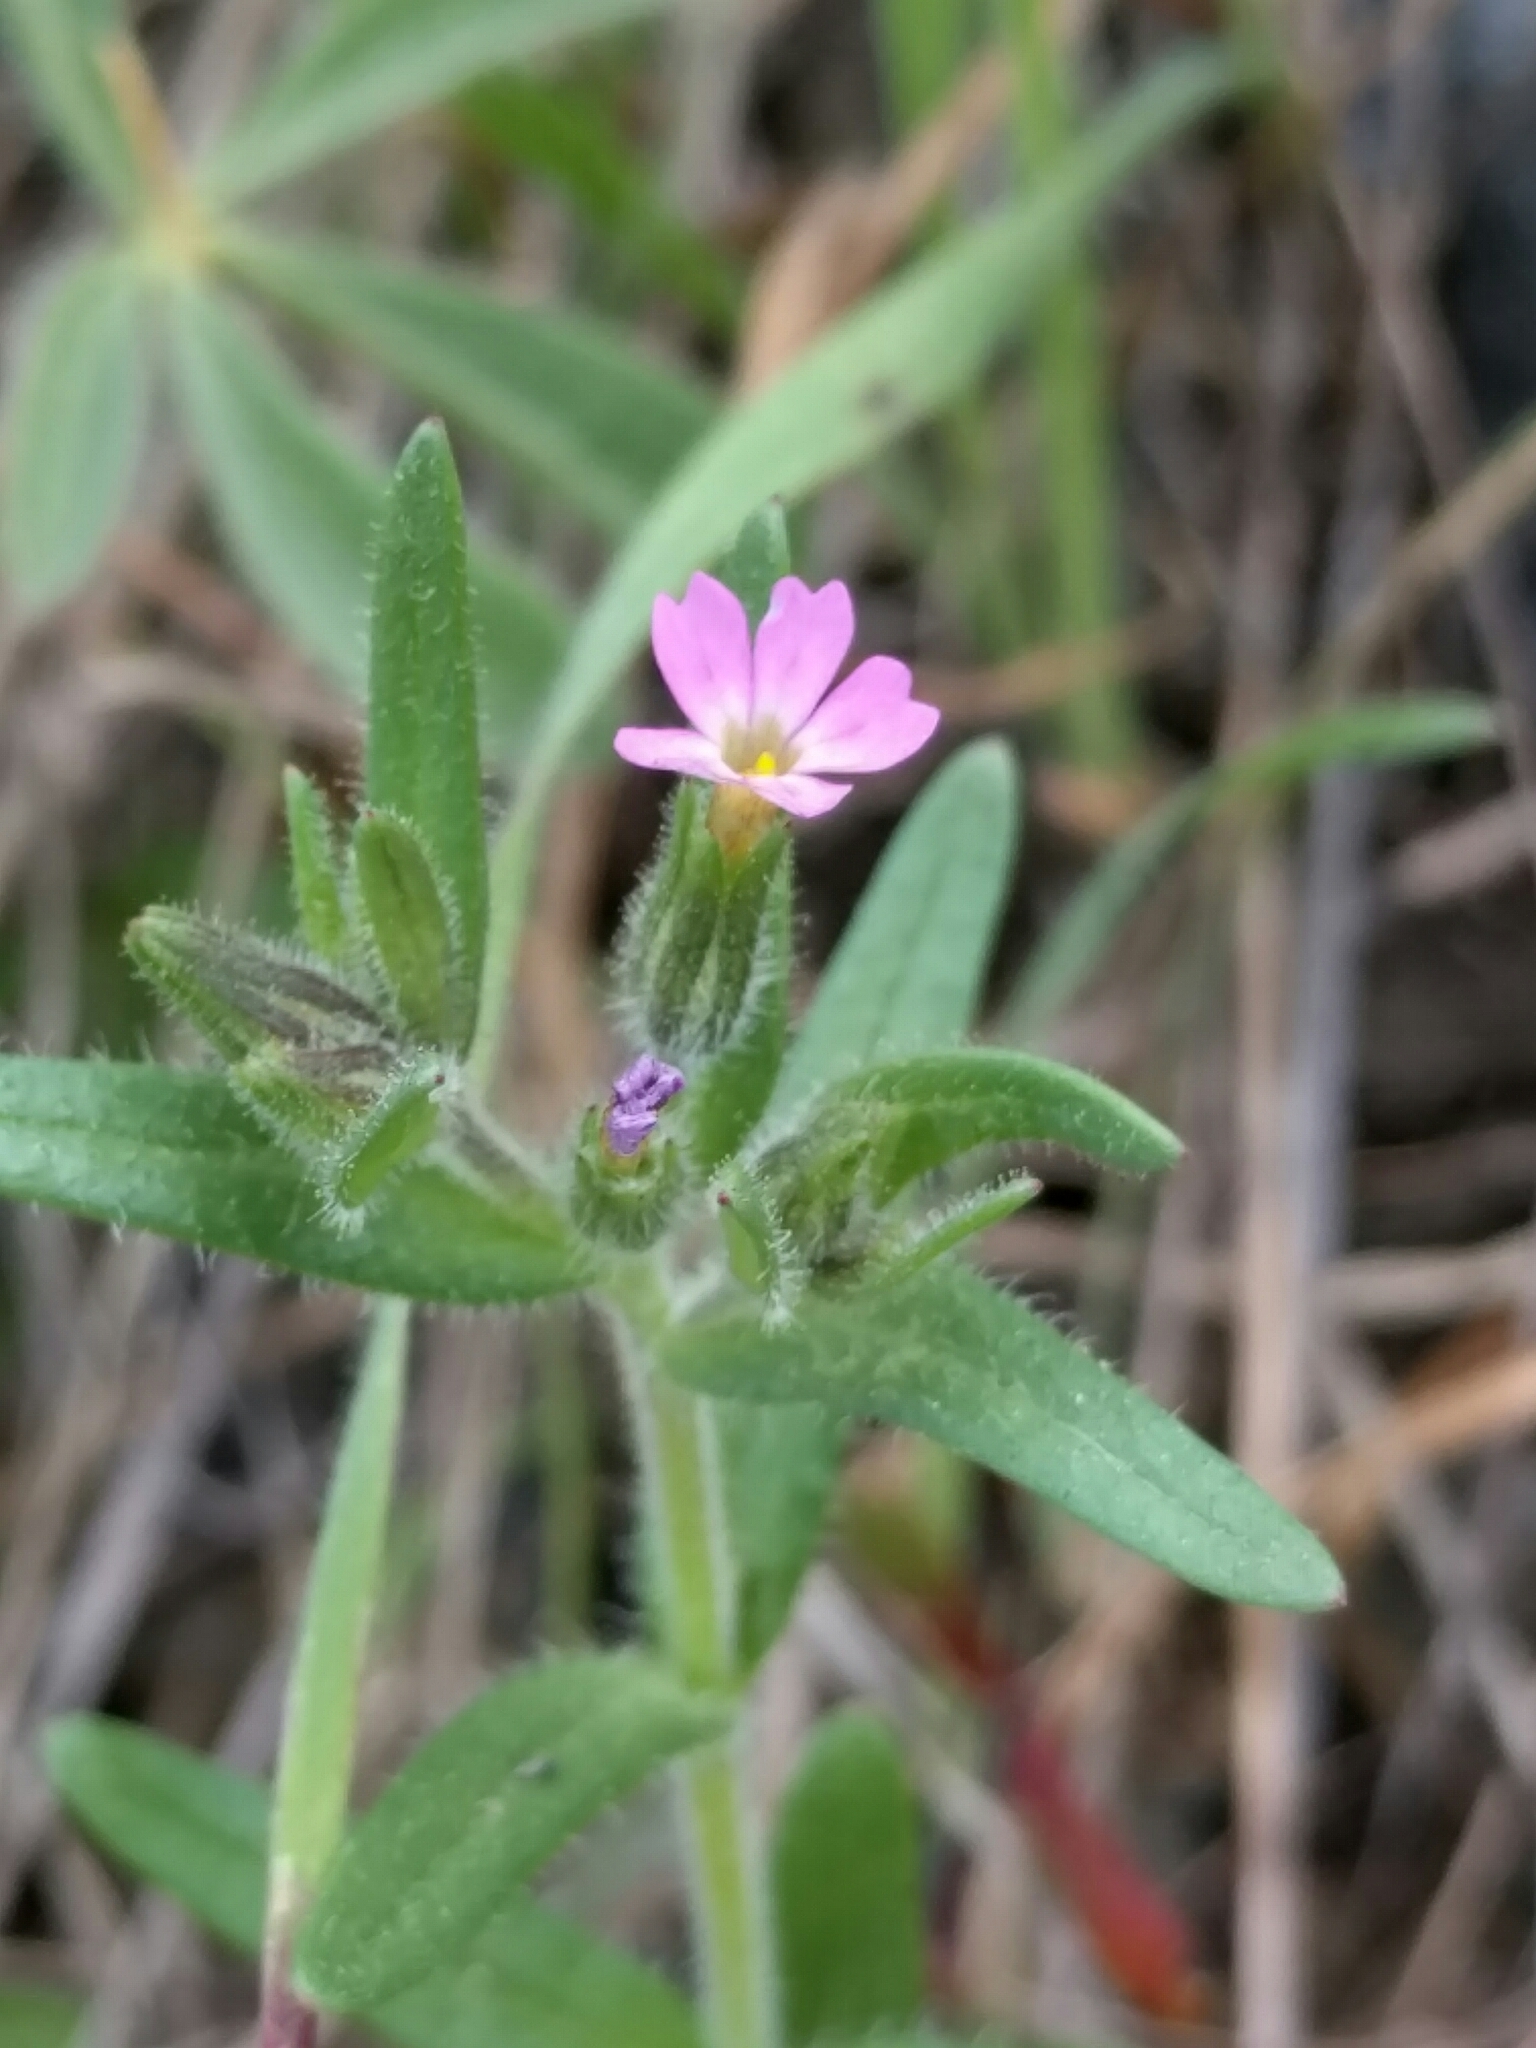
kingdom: Plantae
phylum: Tracheophyta
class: Magnoliopsida
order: Ericales
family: Polemoniaceae
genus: Phlox
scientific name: Phlox gracilis
